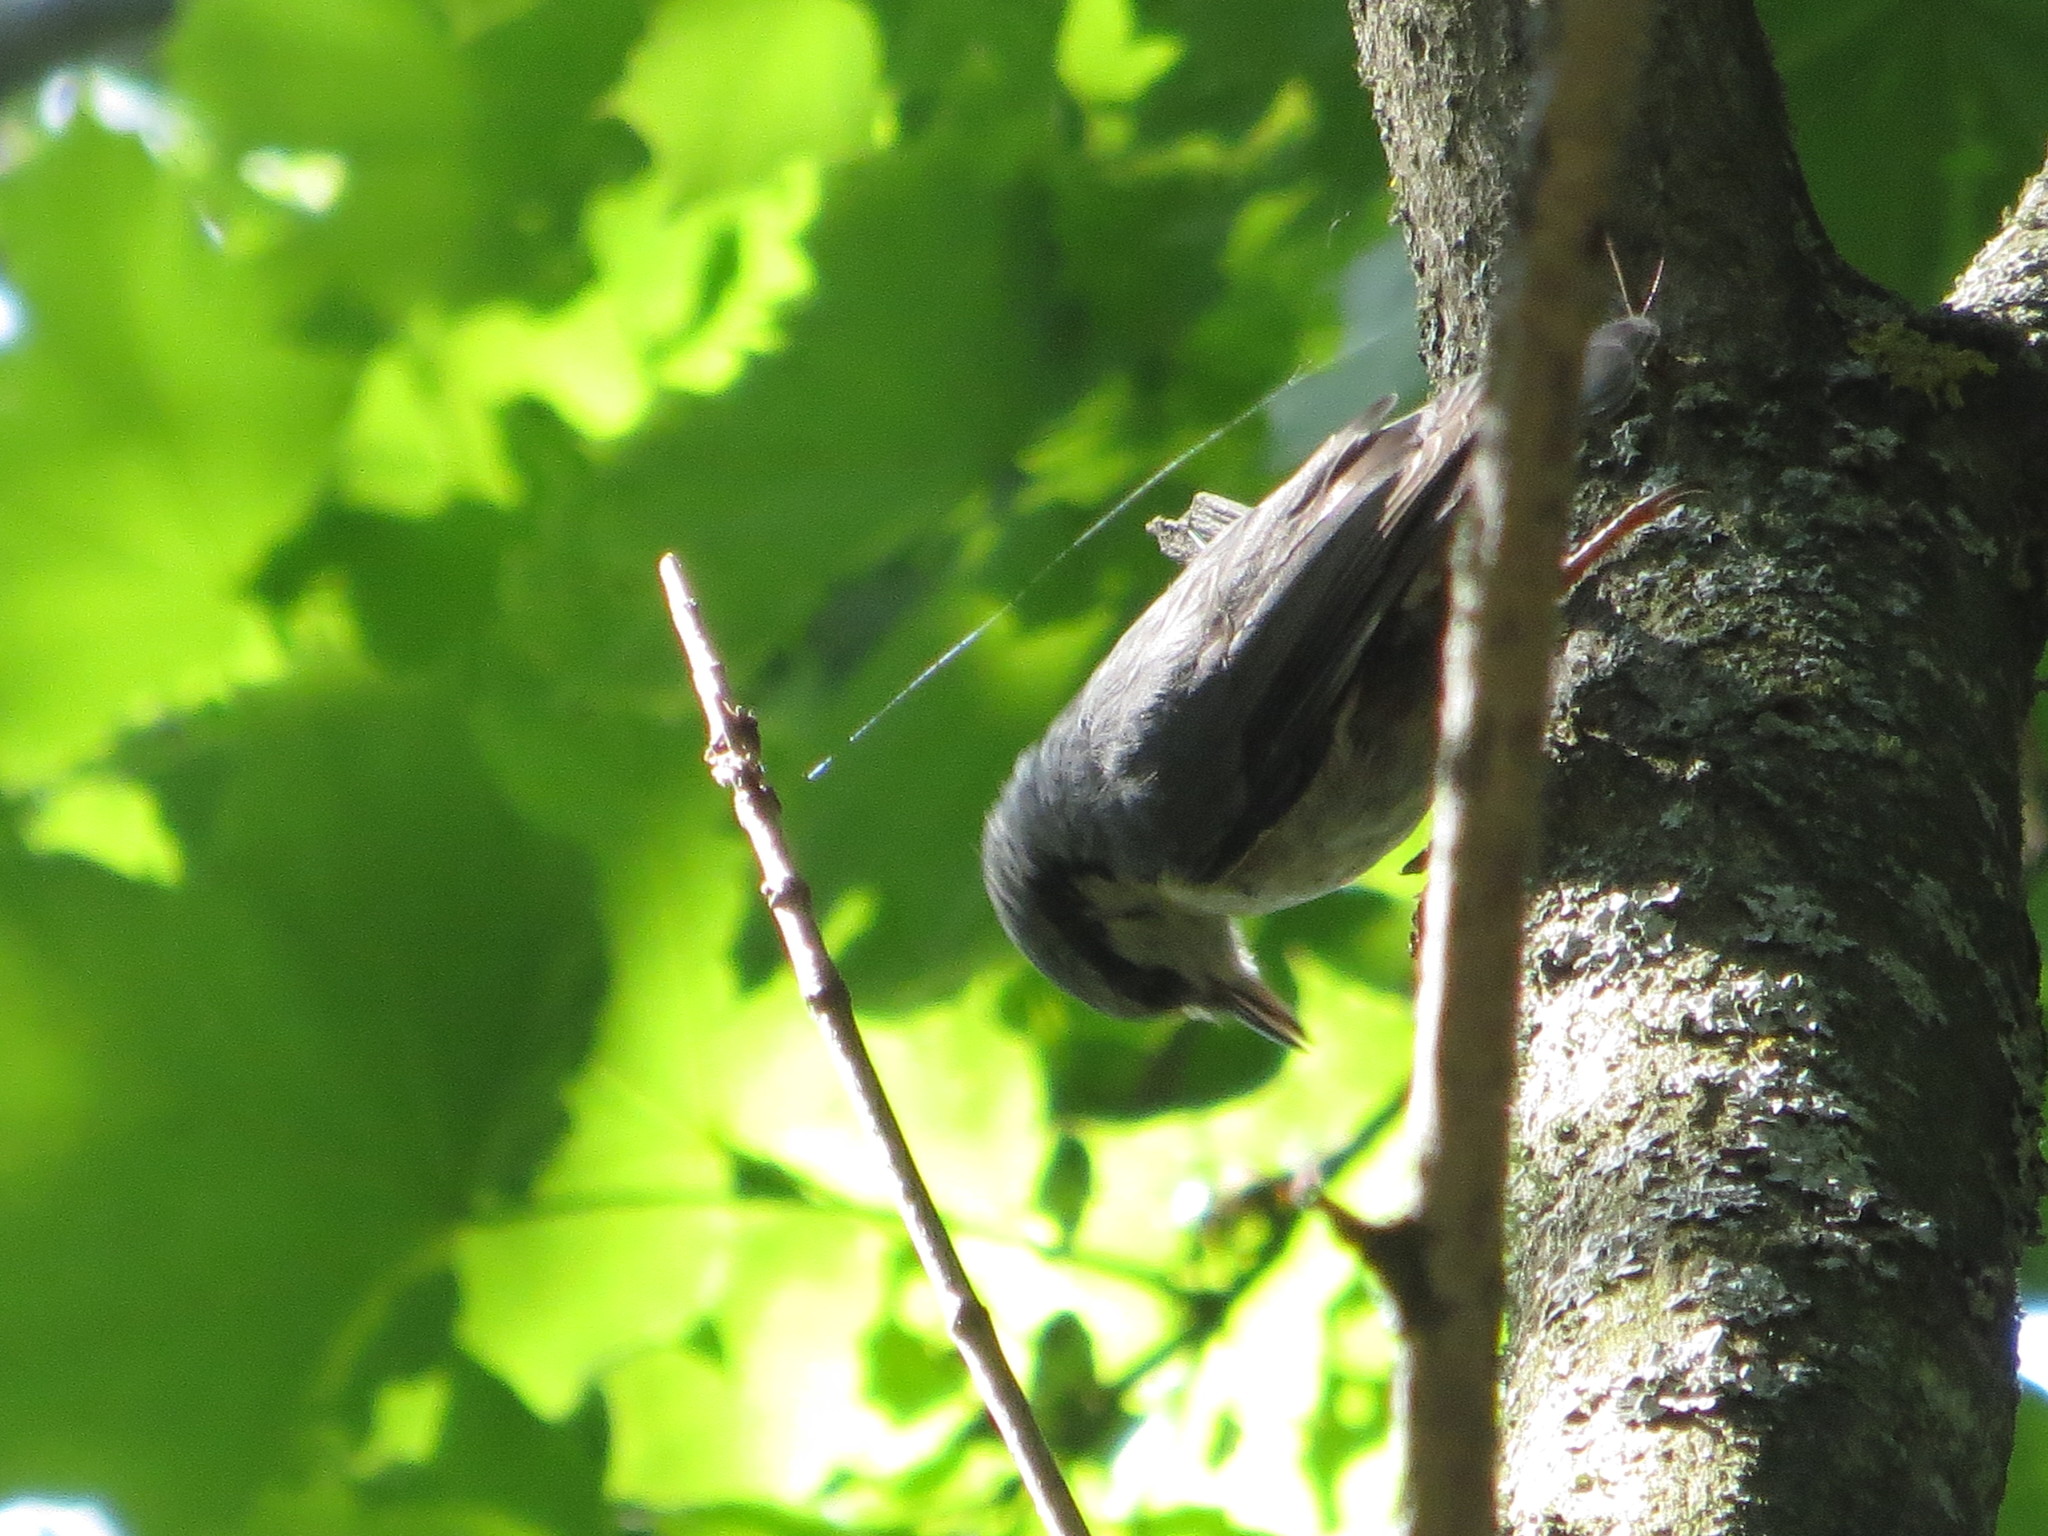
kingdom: Animalia
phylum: Chordata
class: Aves
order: Passeriformes
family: Sittidae
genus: Sitta
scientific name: Sitta europaea
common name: Eurasian nuthatch
